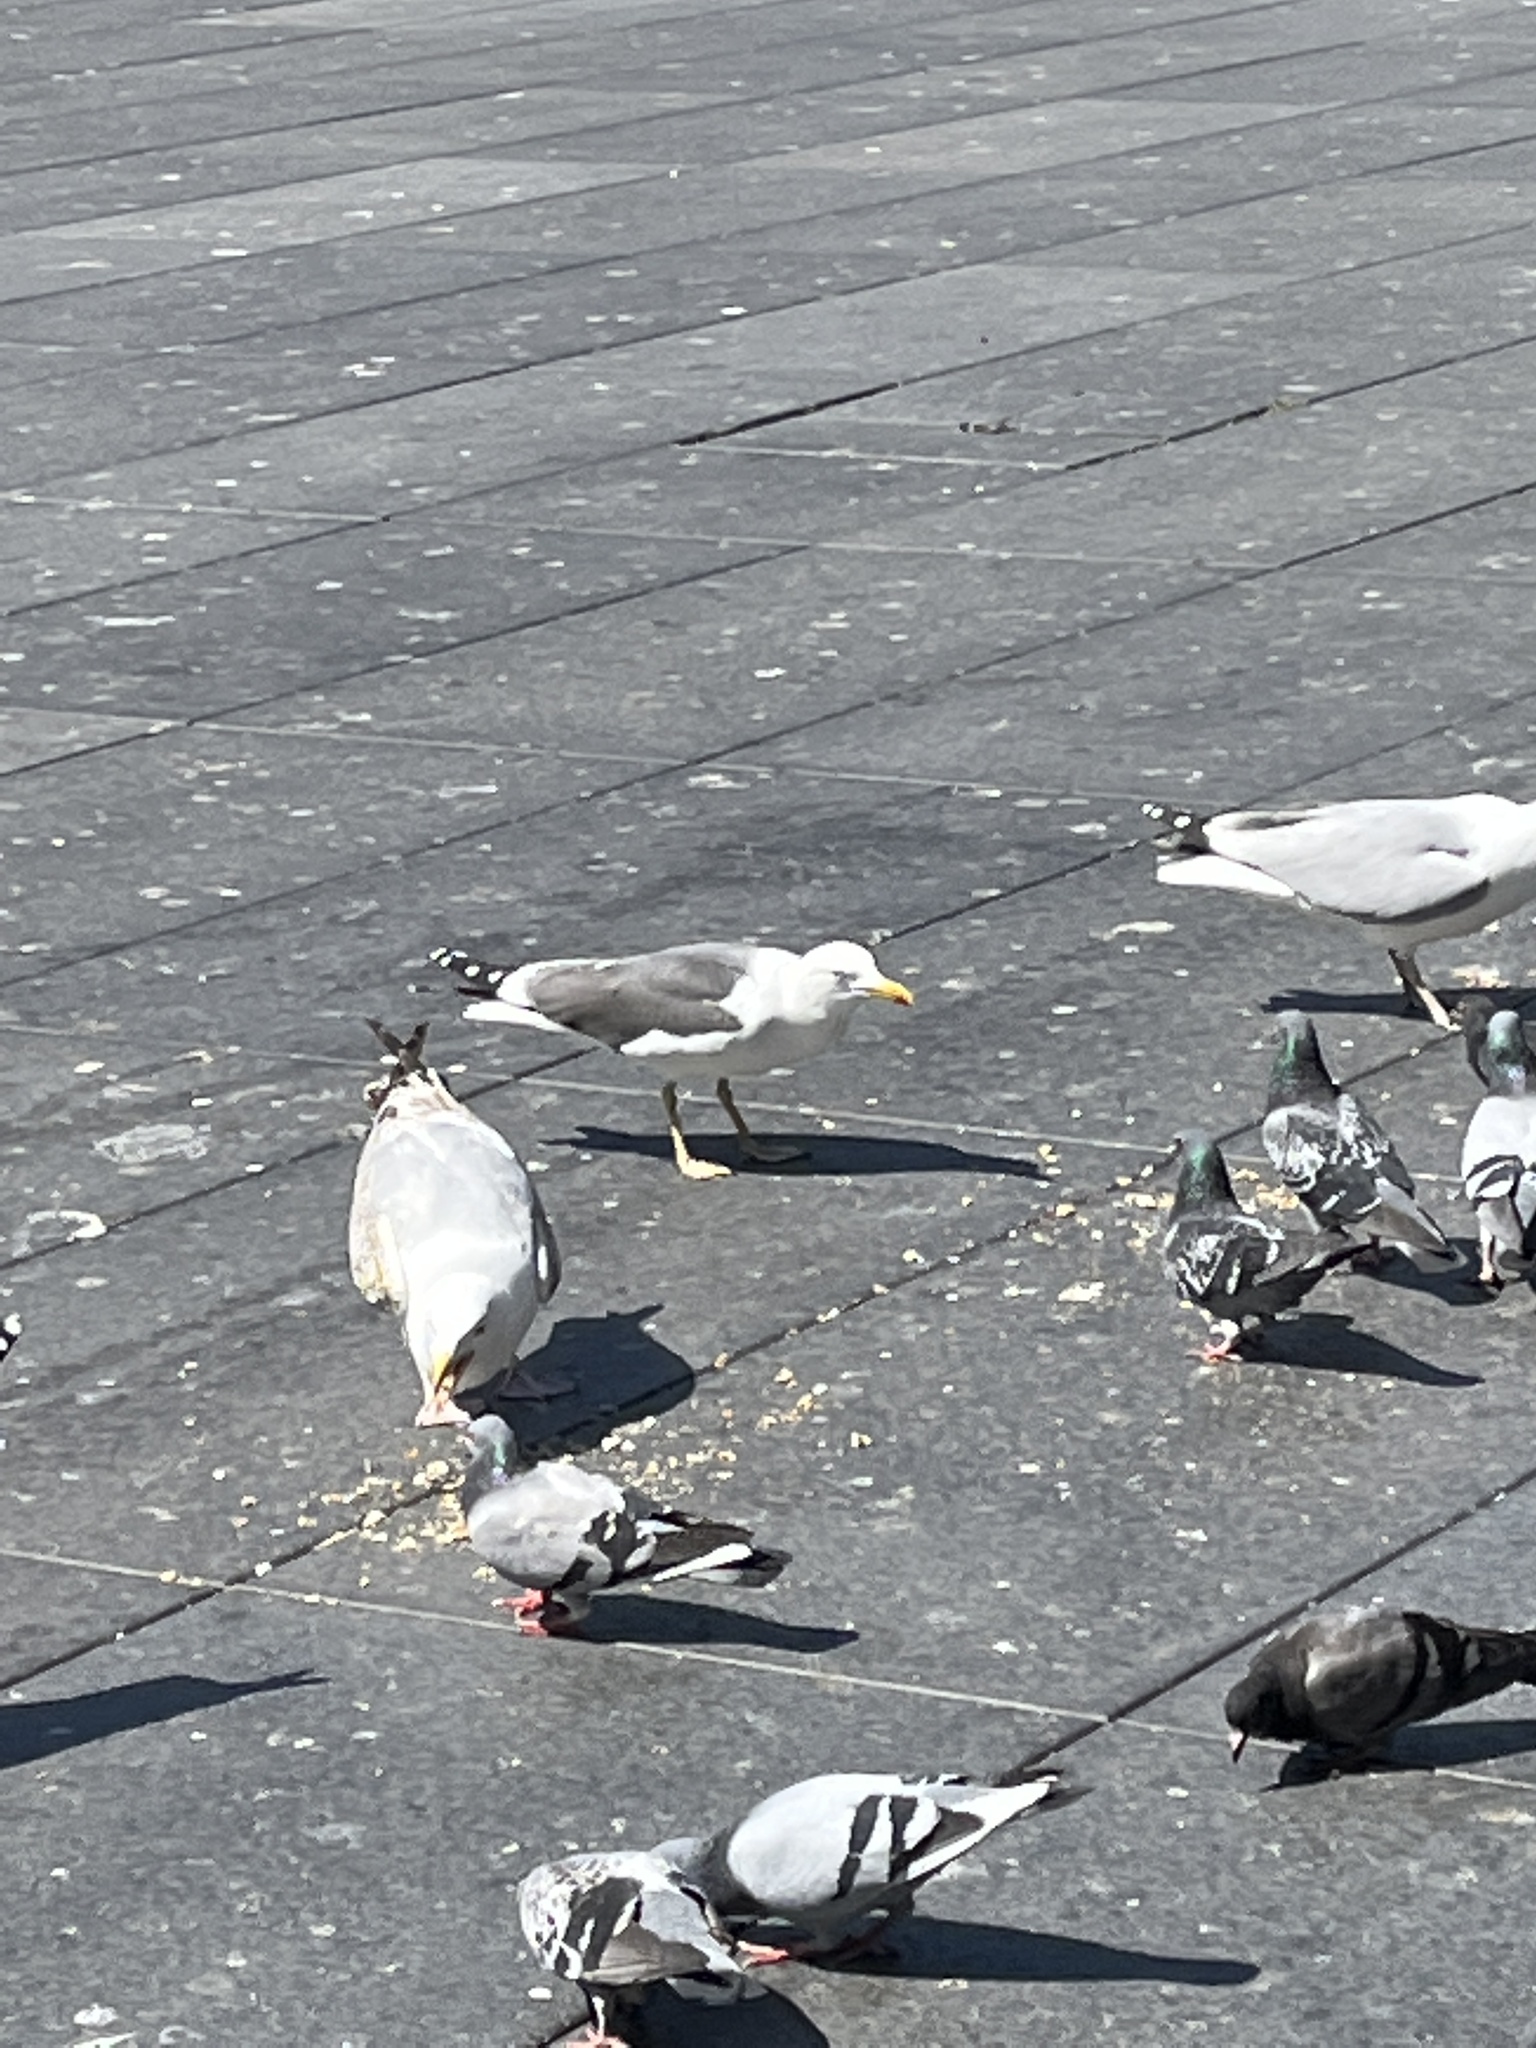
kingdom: Animalia
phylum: Chordata
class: Aves
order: Charadriiformes
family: Laridae
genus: Larus
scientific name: Larus fuscus
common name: Lesser black-backed gull
